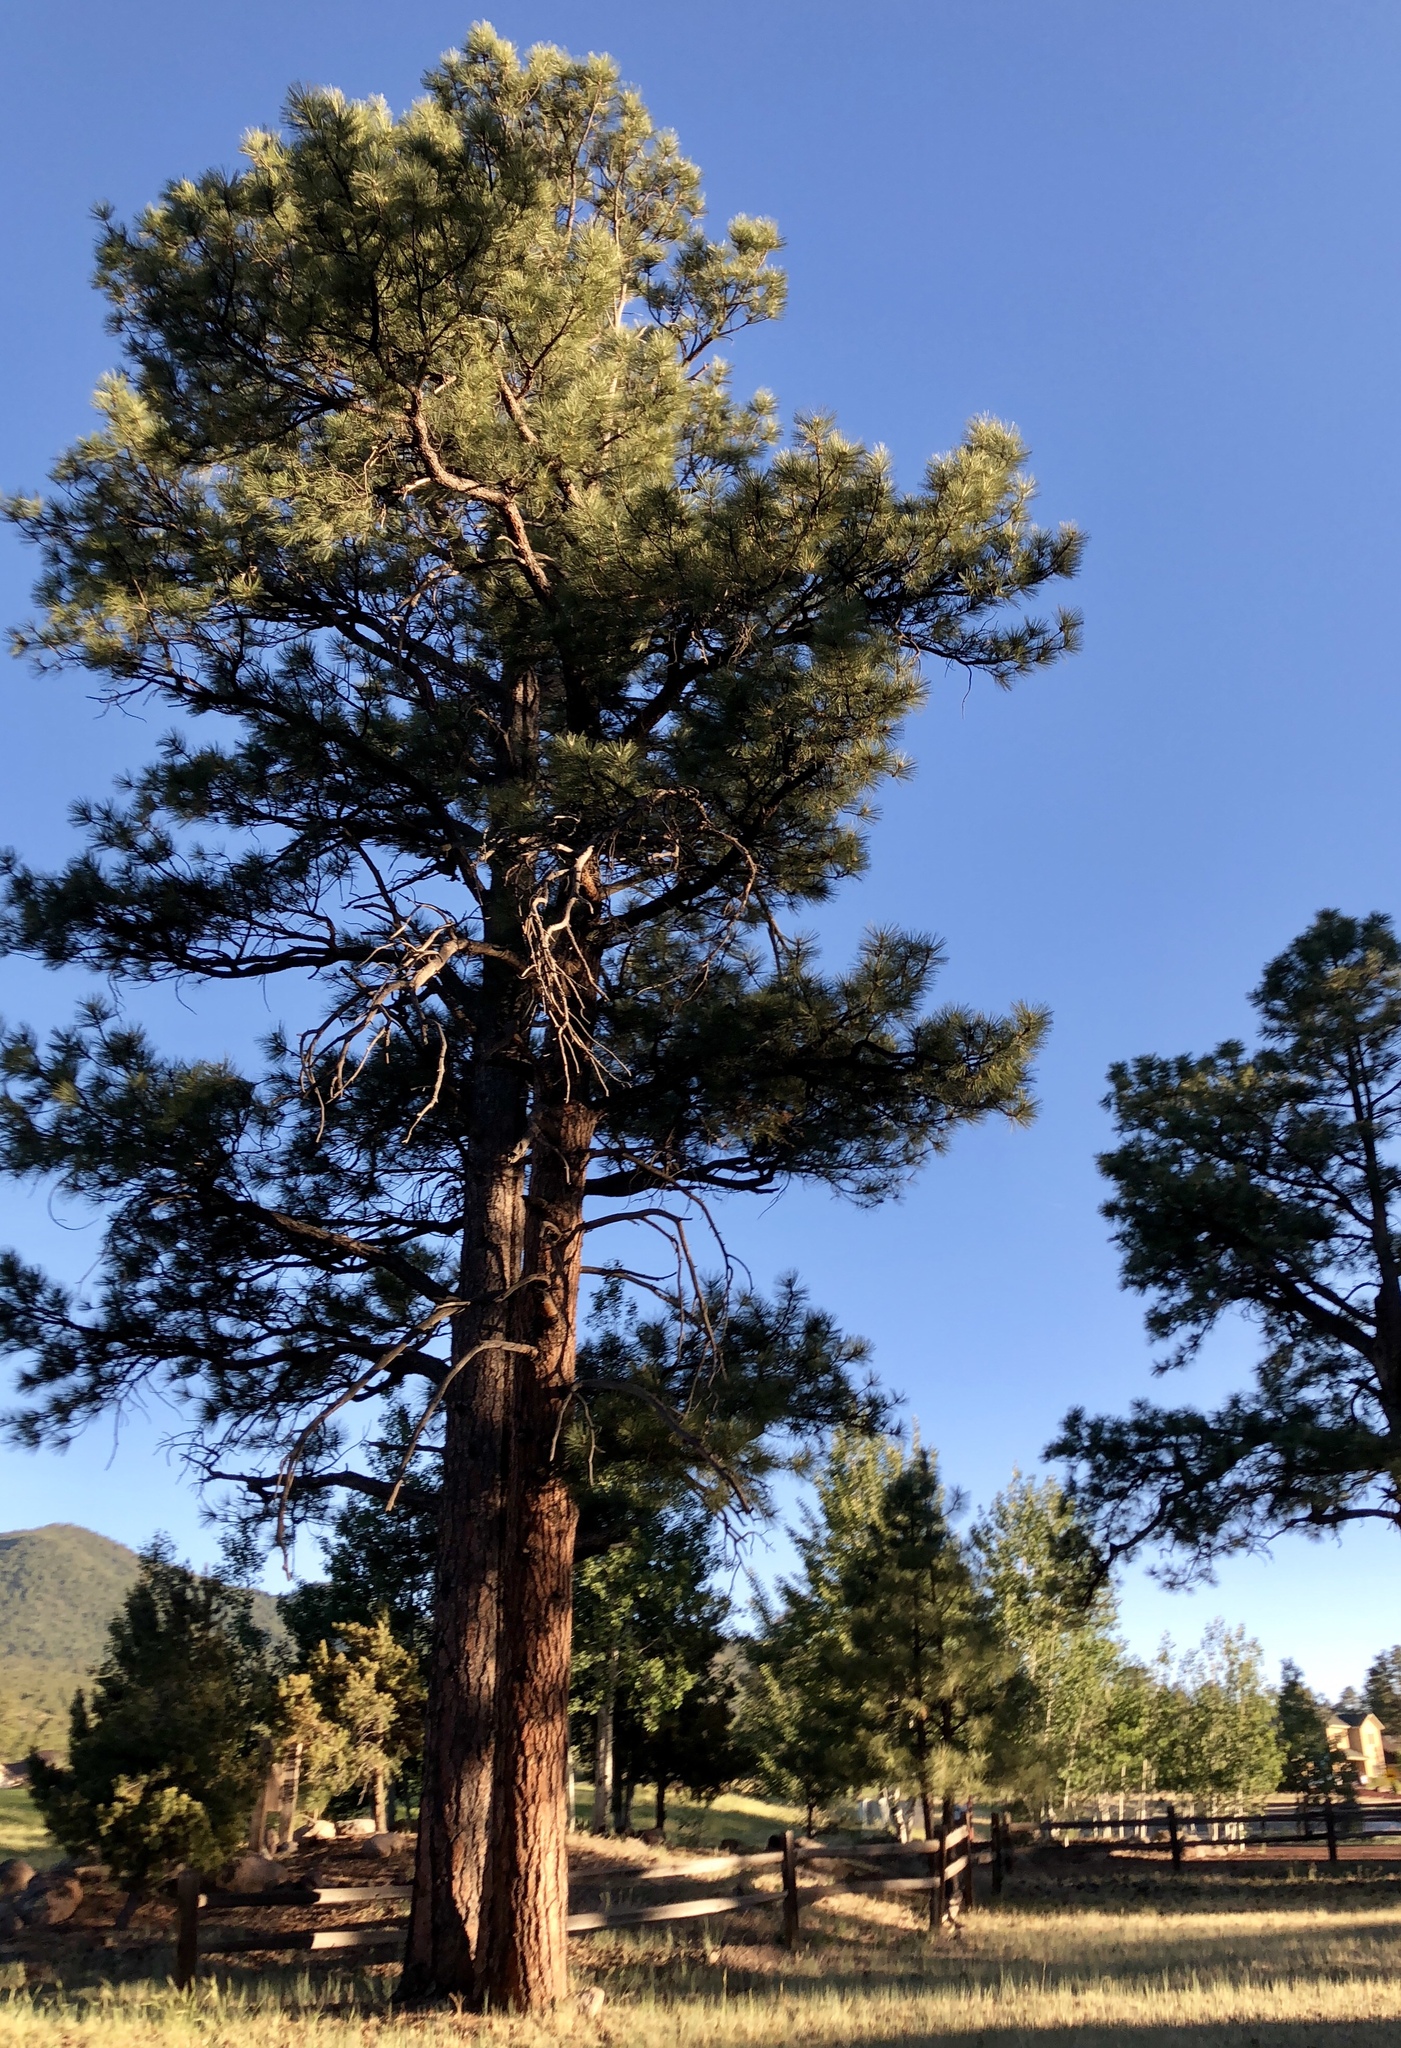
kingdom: Plantae
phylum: Tracheophyta
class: Pinopsida
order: Pinales
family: Pinaceae
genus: Pinus
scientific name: Pinus ponderosa
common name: Western yellow-pine
